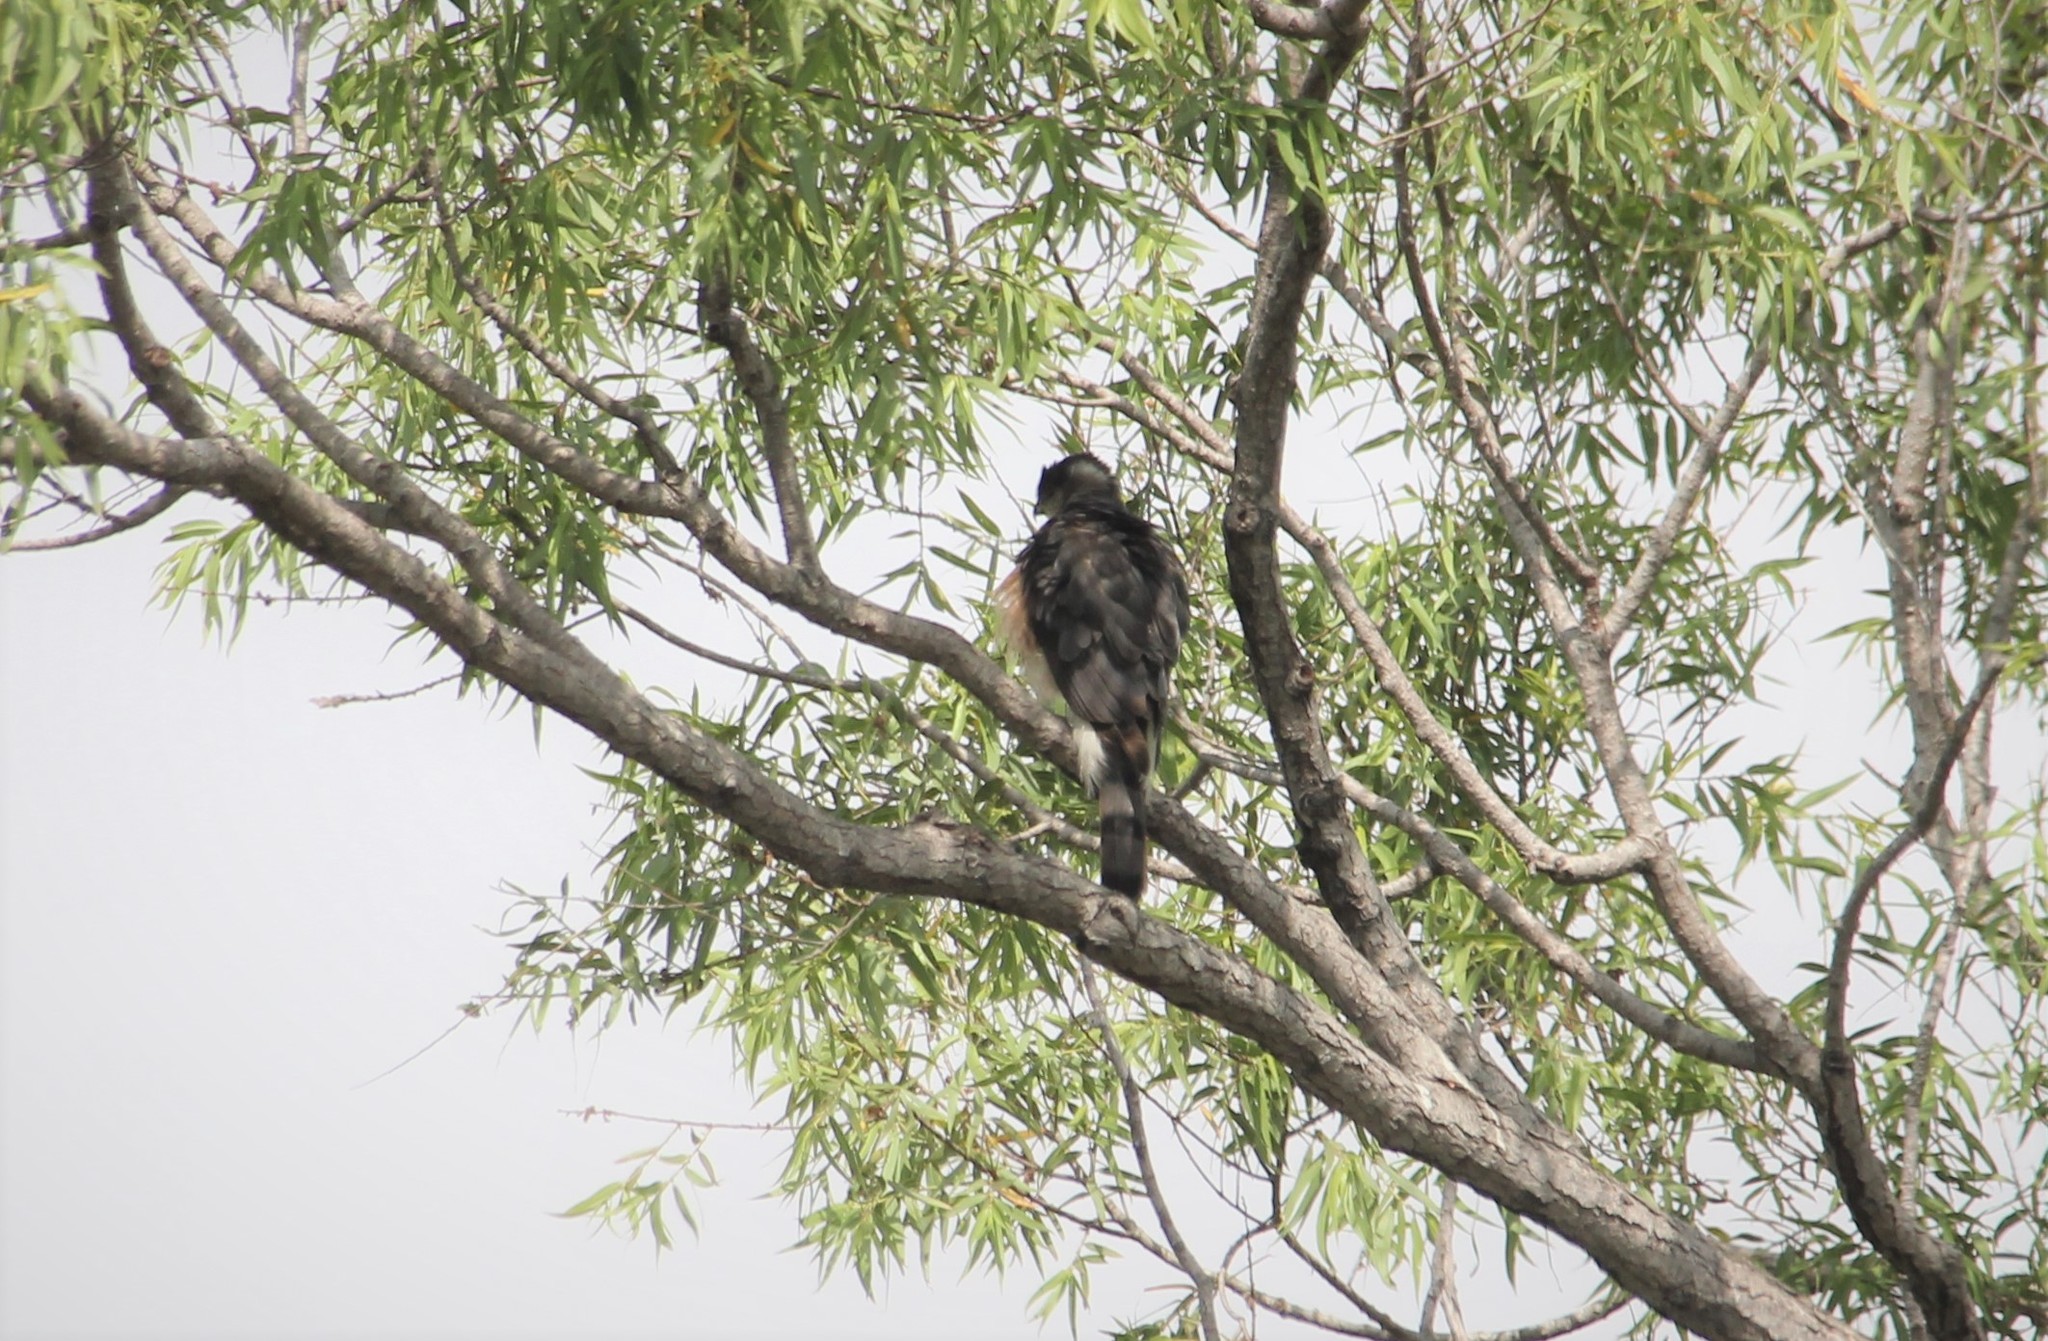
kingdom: Animalia
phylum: Chordata
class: Aves
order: Accipitriformes
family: Accipitridae
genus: Accipiter
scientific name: Accipiter cooperii
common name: Cooper's hawk
